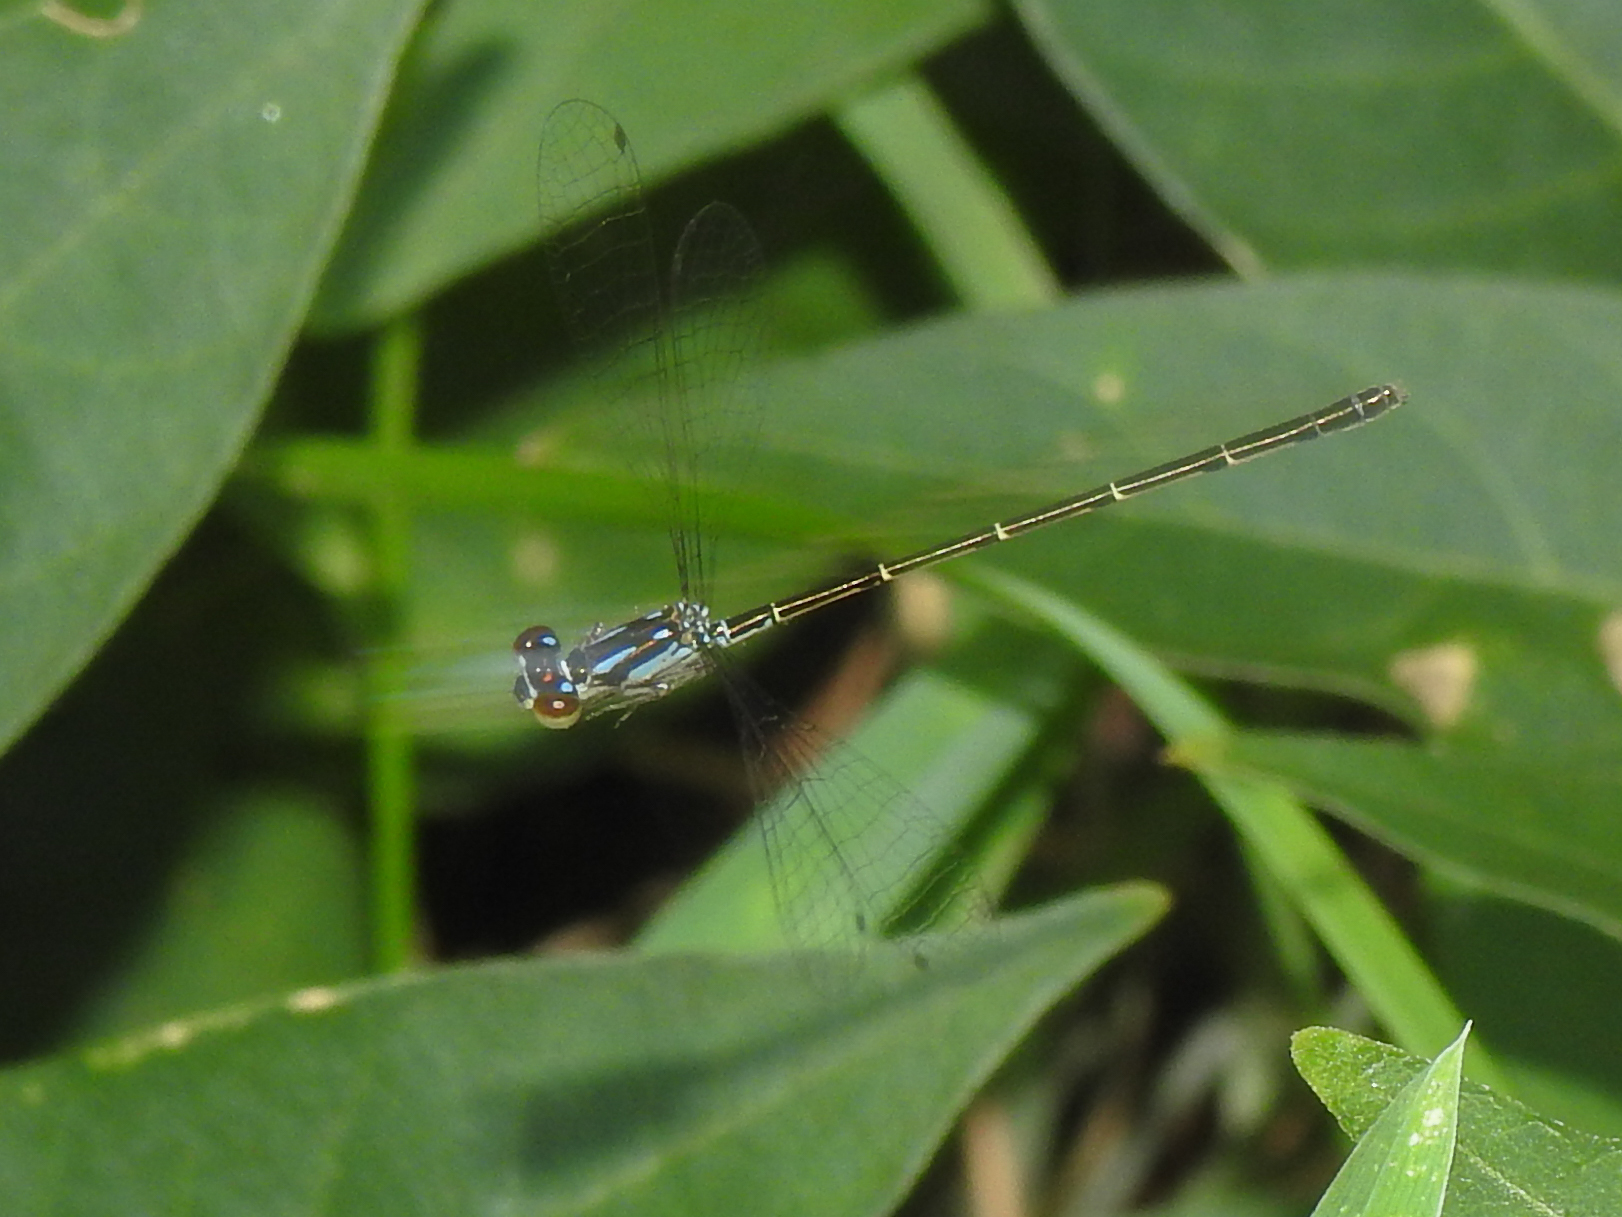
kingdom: Animalia
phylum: Arthropoda
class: Insecta
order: Odonata
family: Coenagrionidae
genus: Ischnura
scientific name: Ischnura posita
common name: Fragile forktail
